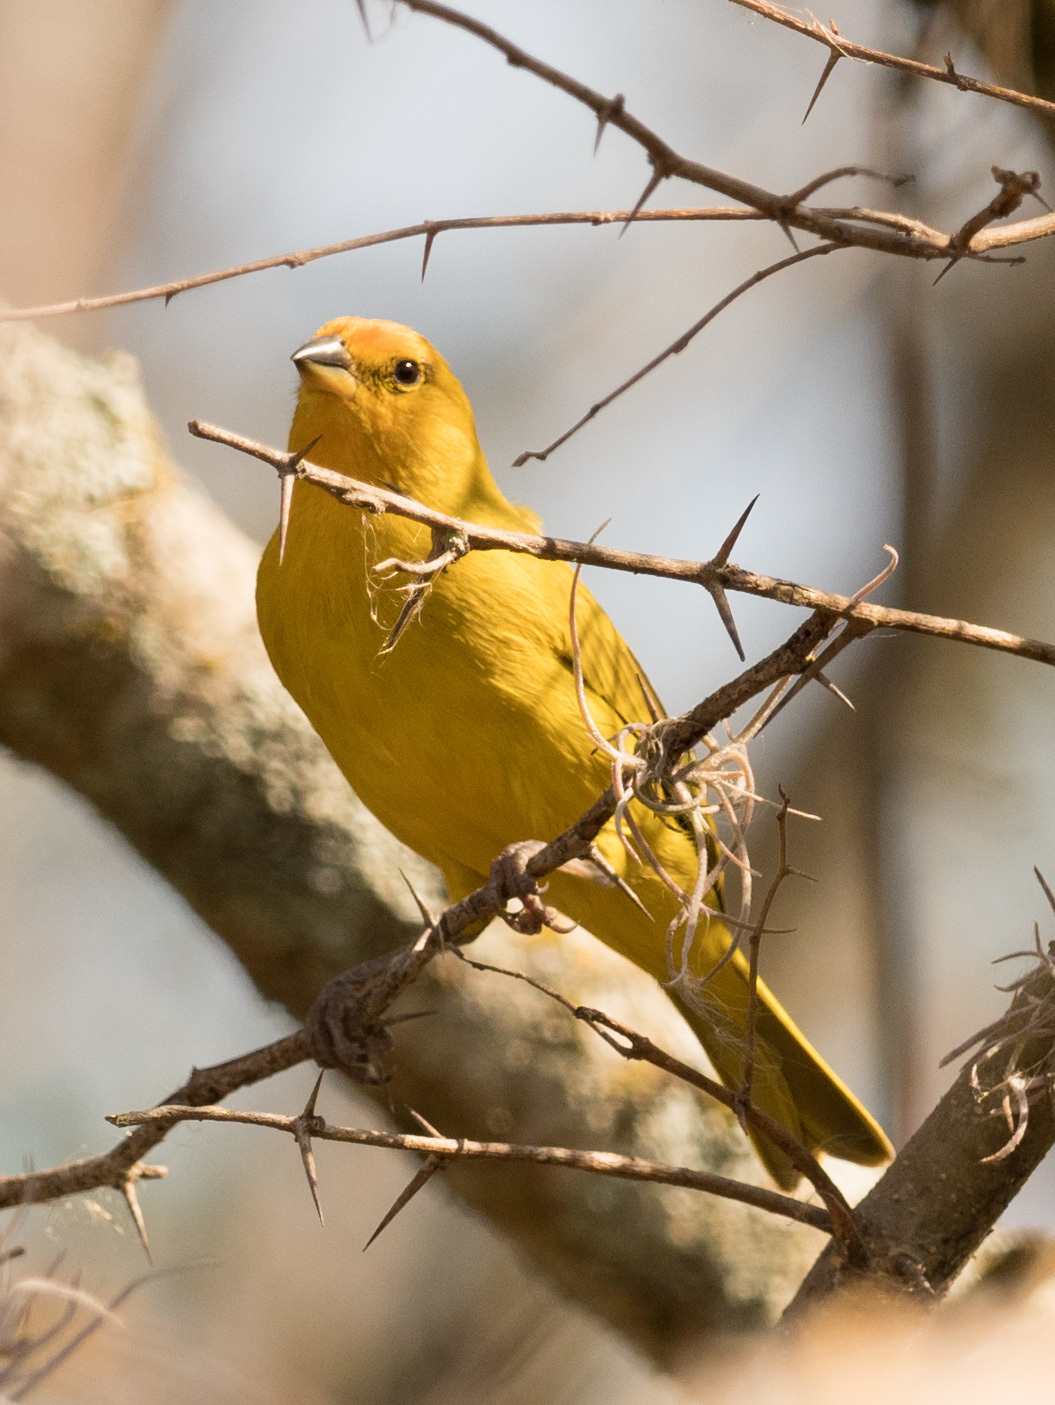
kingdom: Animalia
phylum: Chordata
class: Aves
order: Passeriformes
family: Thraupidae
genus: Sicalis
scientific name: Sicalis flaveola
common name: Saffron finch
